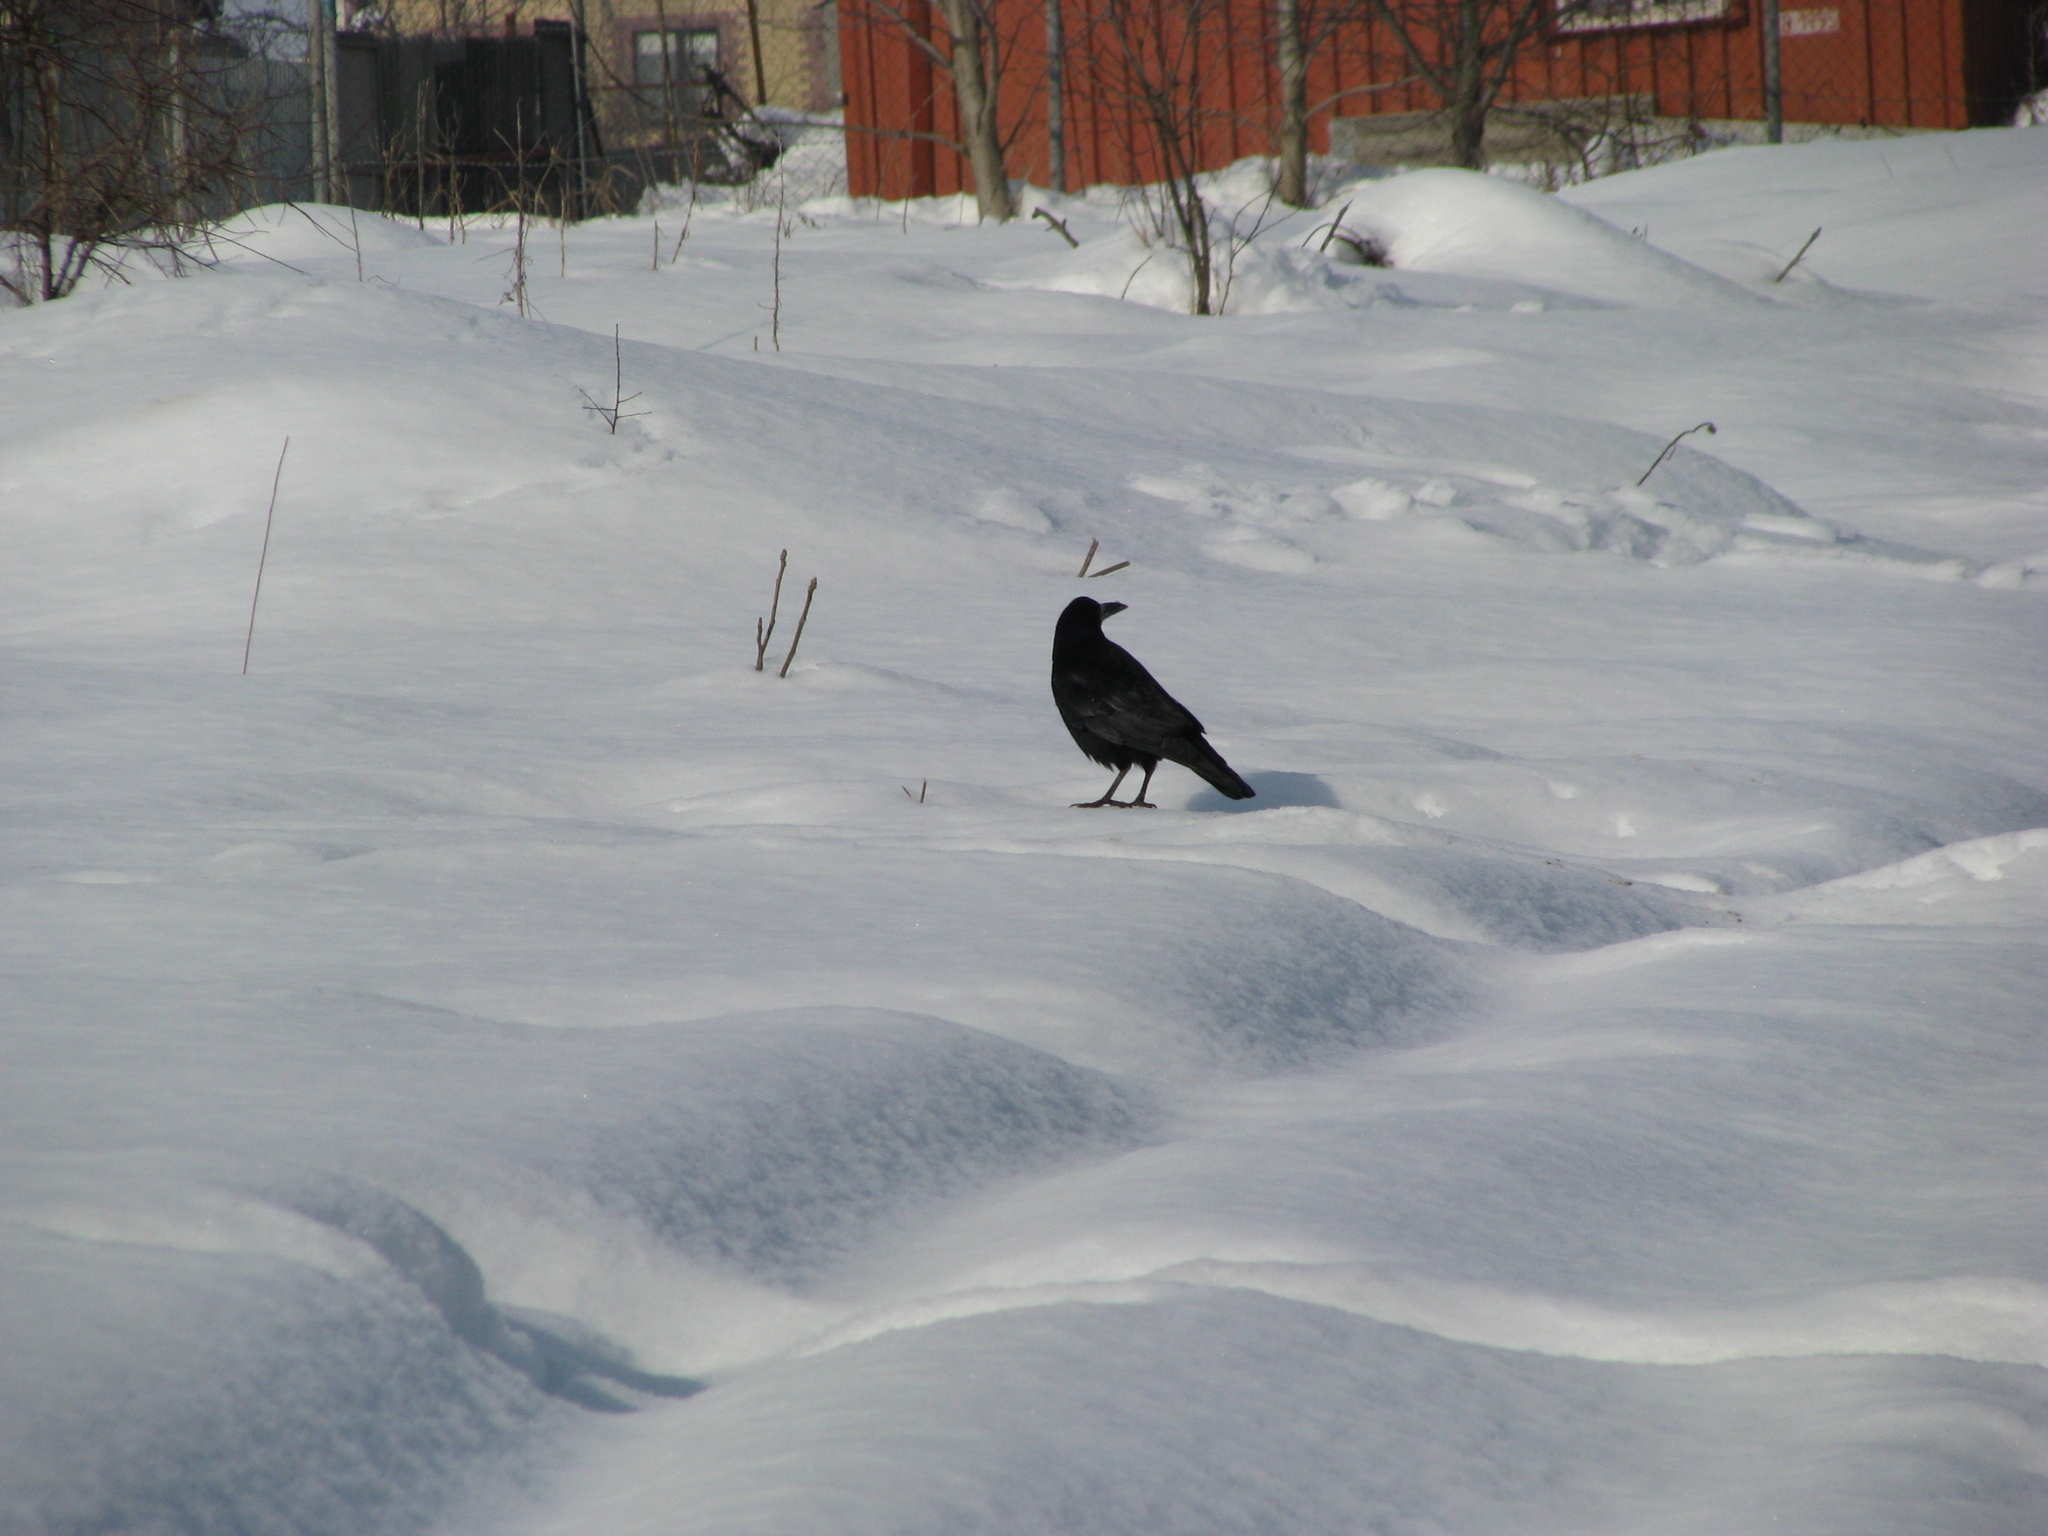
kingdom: Animalia
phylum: Chordata
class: Aves
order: Passeriformes
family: Corvidae
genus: Corvus
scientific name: Corvus frugilegus
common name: Rook
